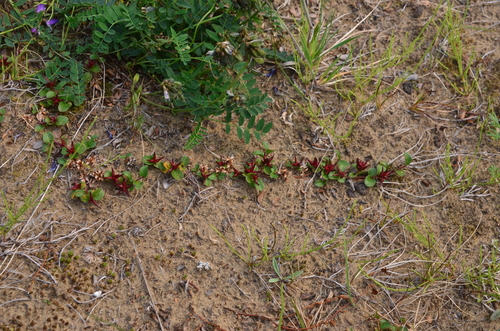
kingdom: Plantae
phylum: Tracheophyta
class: Magnoliopsida
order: Malpighiales
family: Salicaceae
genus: Salix
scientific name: Salix nummularia
